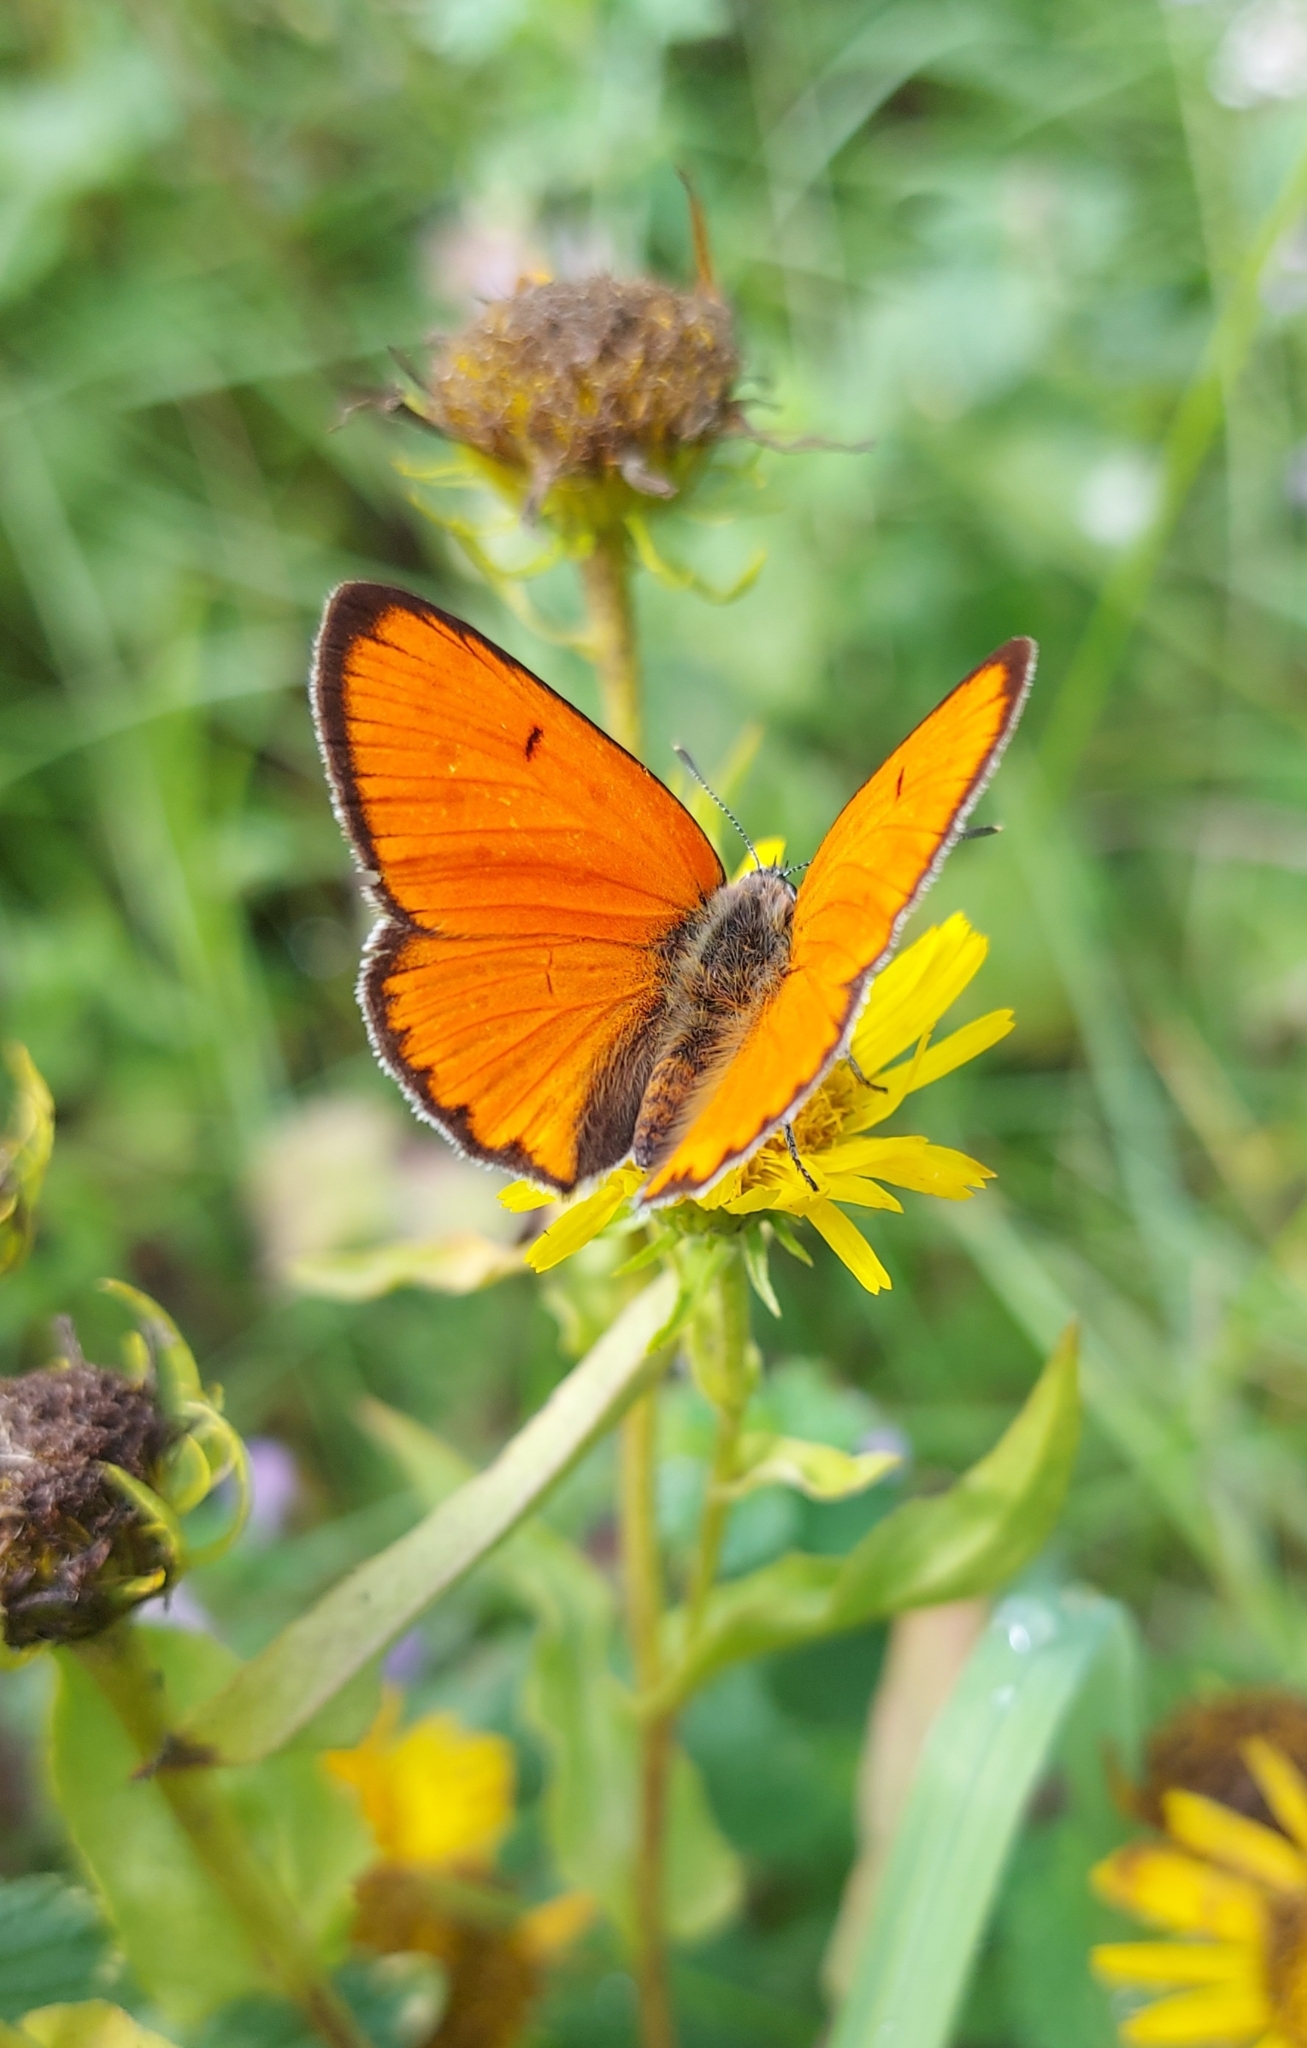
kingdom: Animalia
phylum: Arthropoda
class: Insecta
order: Lepidoptera
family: Lycaenidae
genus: Lycaena
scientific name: Lycaena dispar
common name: Large copper
